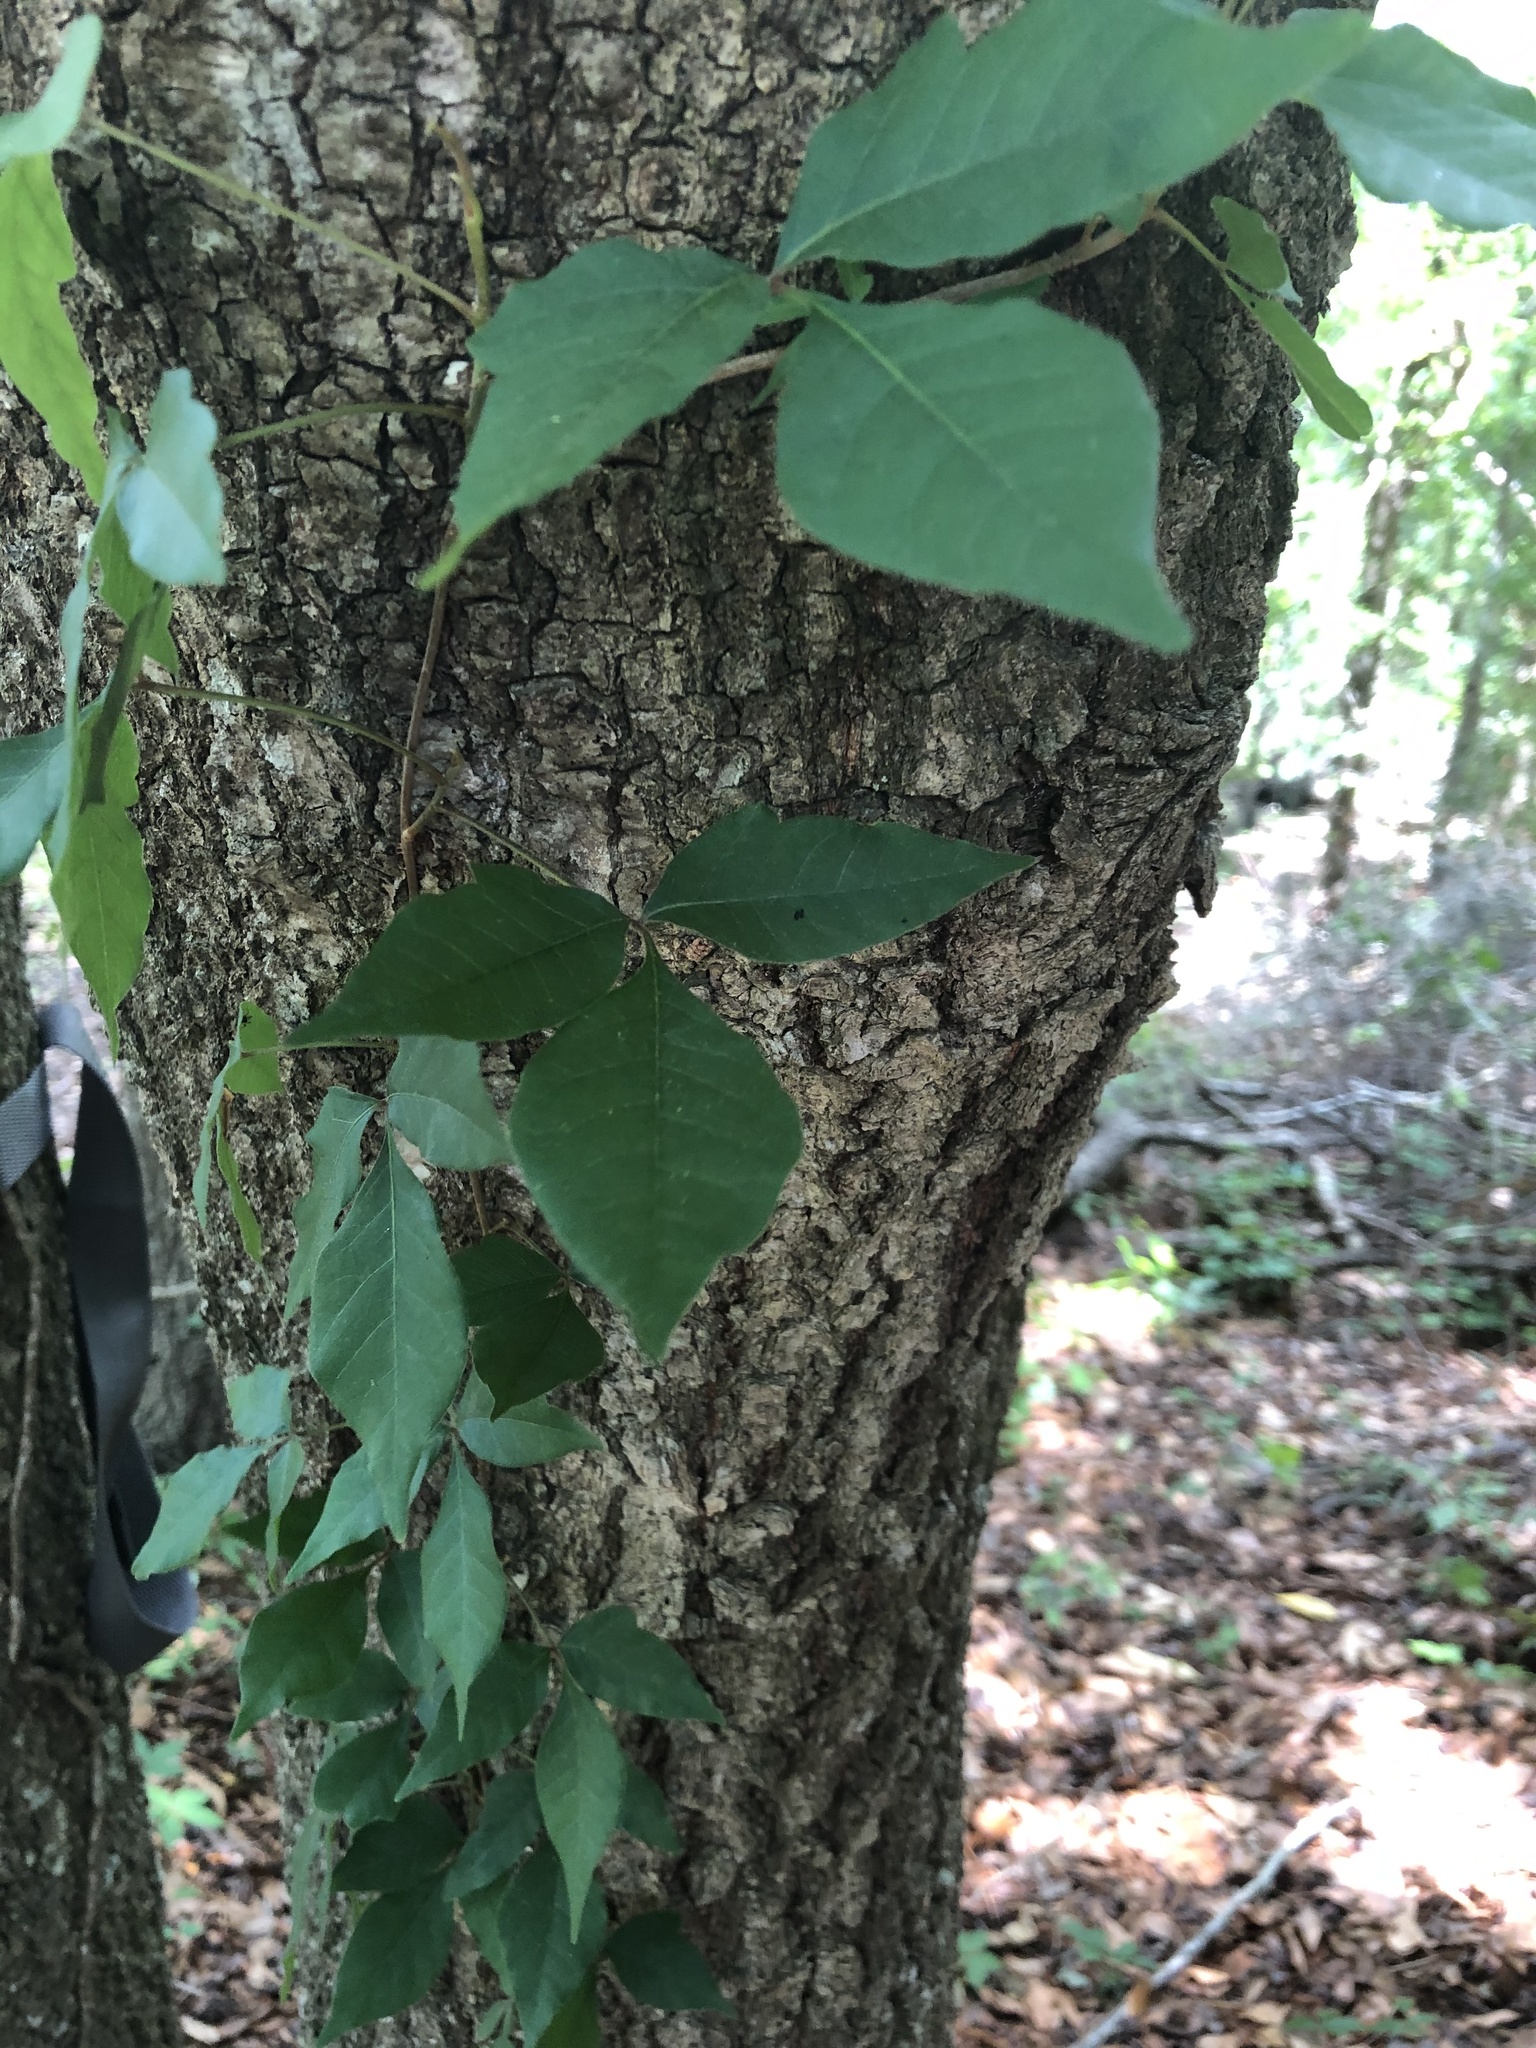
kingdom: Plantae
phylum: Tracheophyta
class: Magnoliopsida
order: Sapindales
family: Anacardiaceae
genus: Toxicodendron
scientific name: Toxicodendron radicans
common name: Poison ivy
